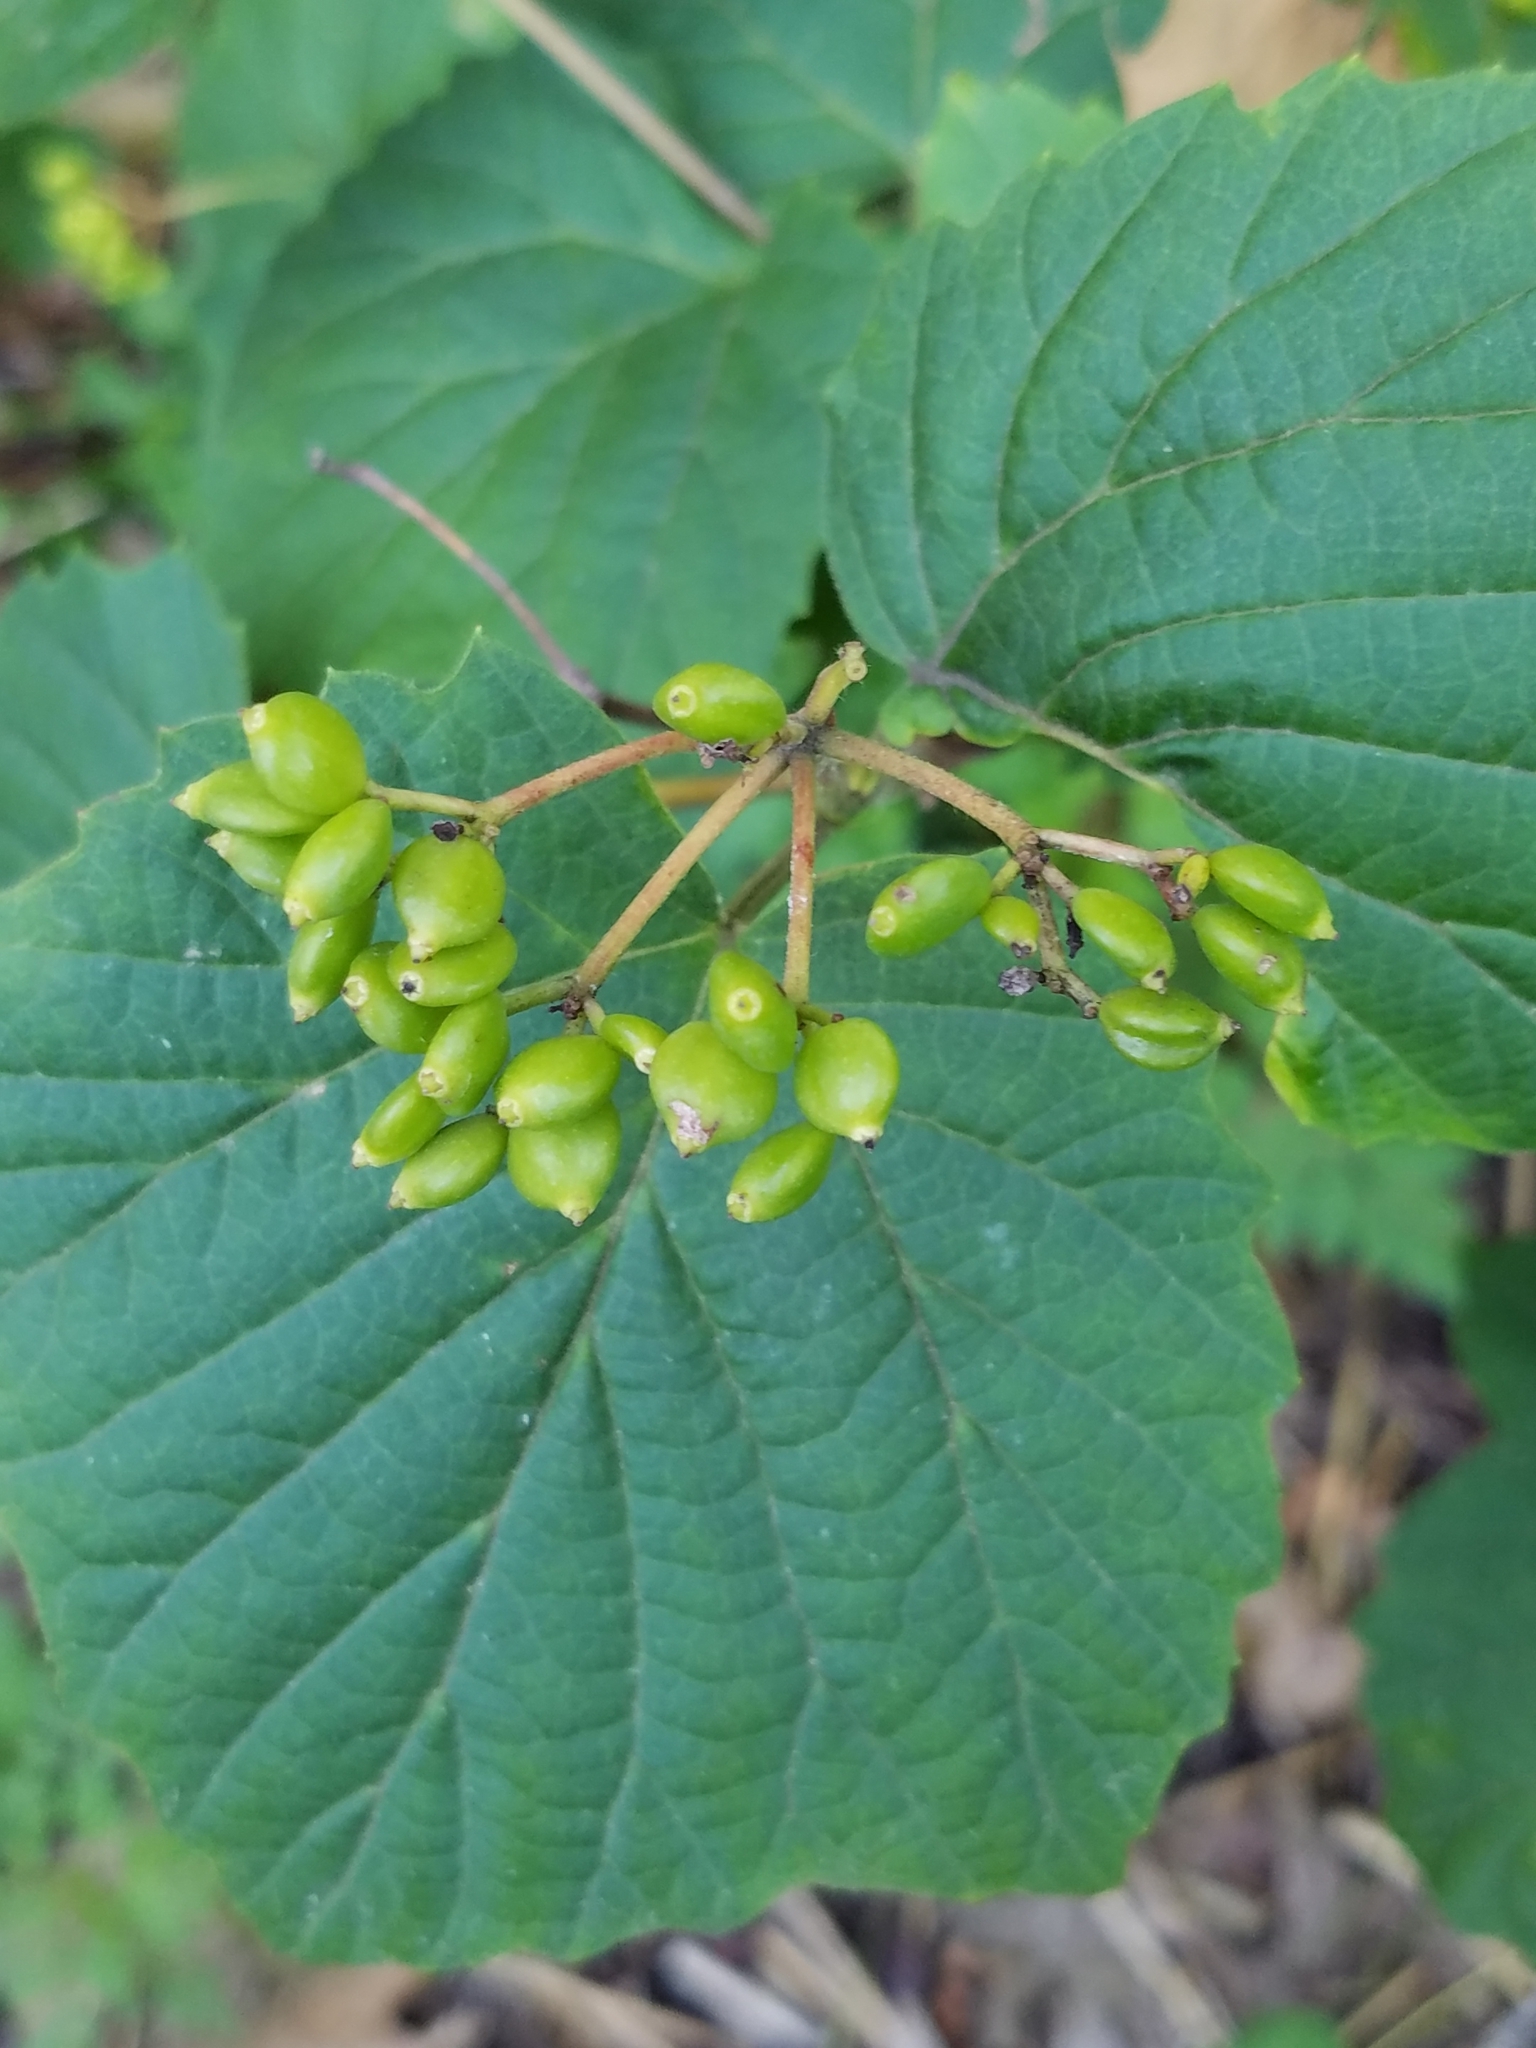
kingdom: Plantae
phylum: Tracheophyta
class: Magnoliopsida
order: Dipsacales
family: Viburnaceae
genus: Viburnum
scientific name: Viburnum acerifolium
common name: Dockmackie
